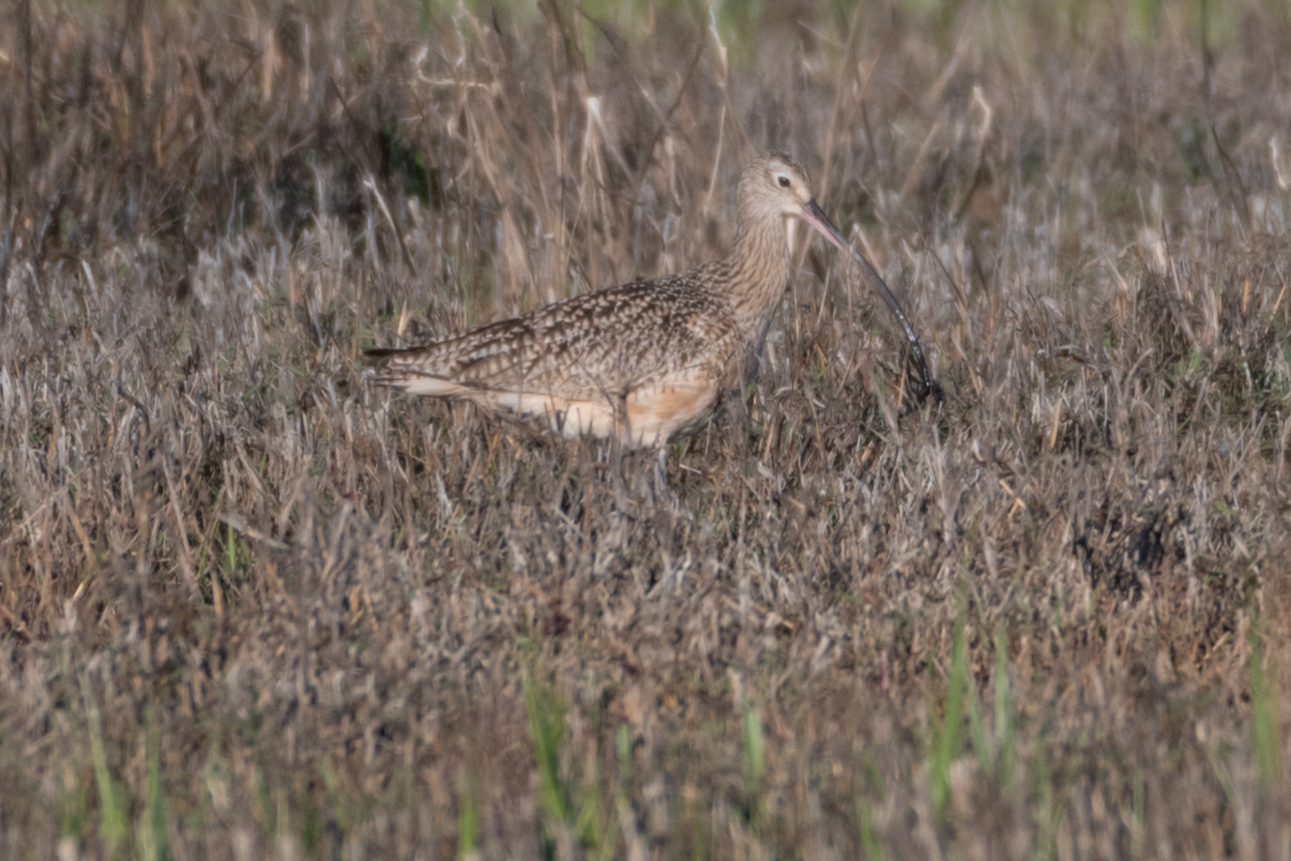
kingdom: Animalia
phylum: Chordata
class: Aves
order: Charadriiformes
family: Scolopacidae
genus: Numenius
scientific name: Numenius americanus
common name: Long-billed curlew
